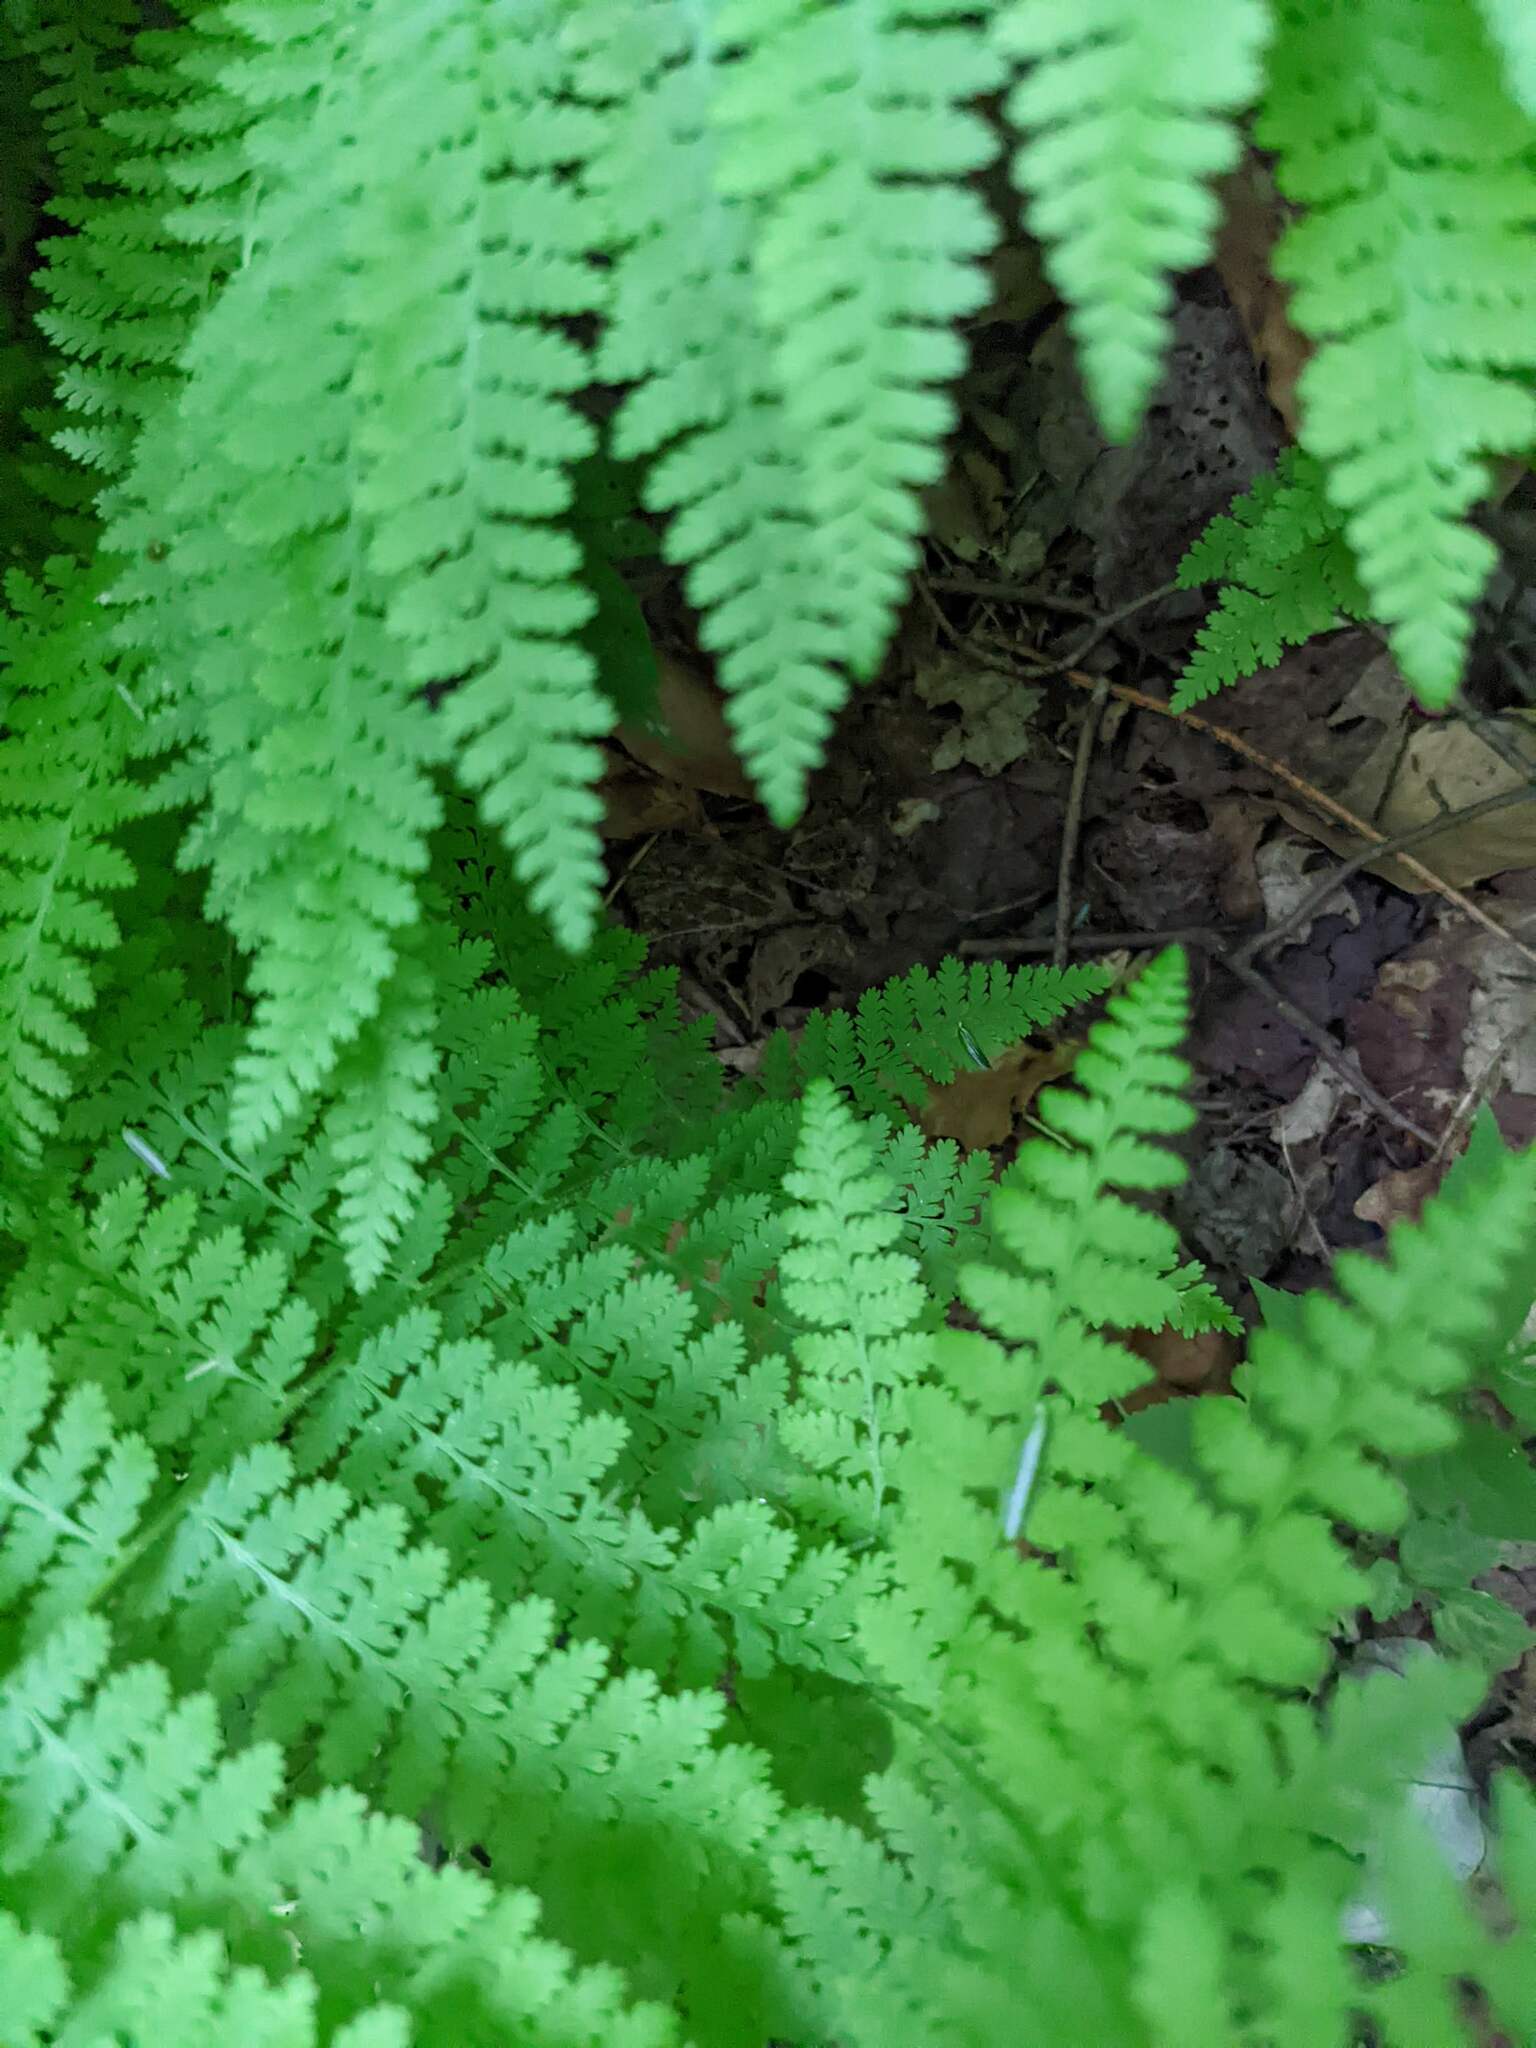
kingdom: Plantae
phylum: Tracheophyta
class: Polypodiopsida
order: Polypodiales
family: Dennstaedtiaceae
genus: Sitobolium
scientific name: Sitobolium punctilobum
